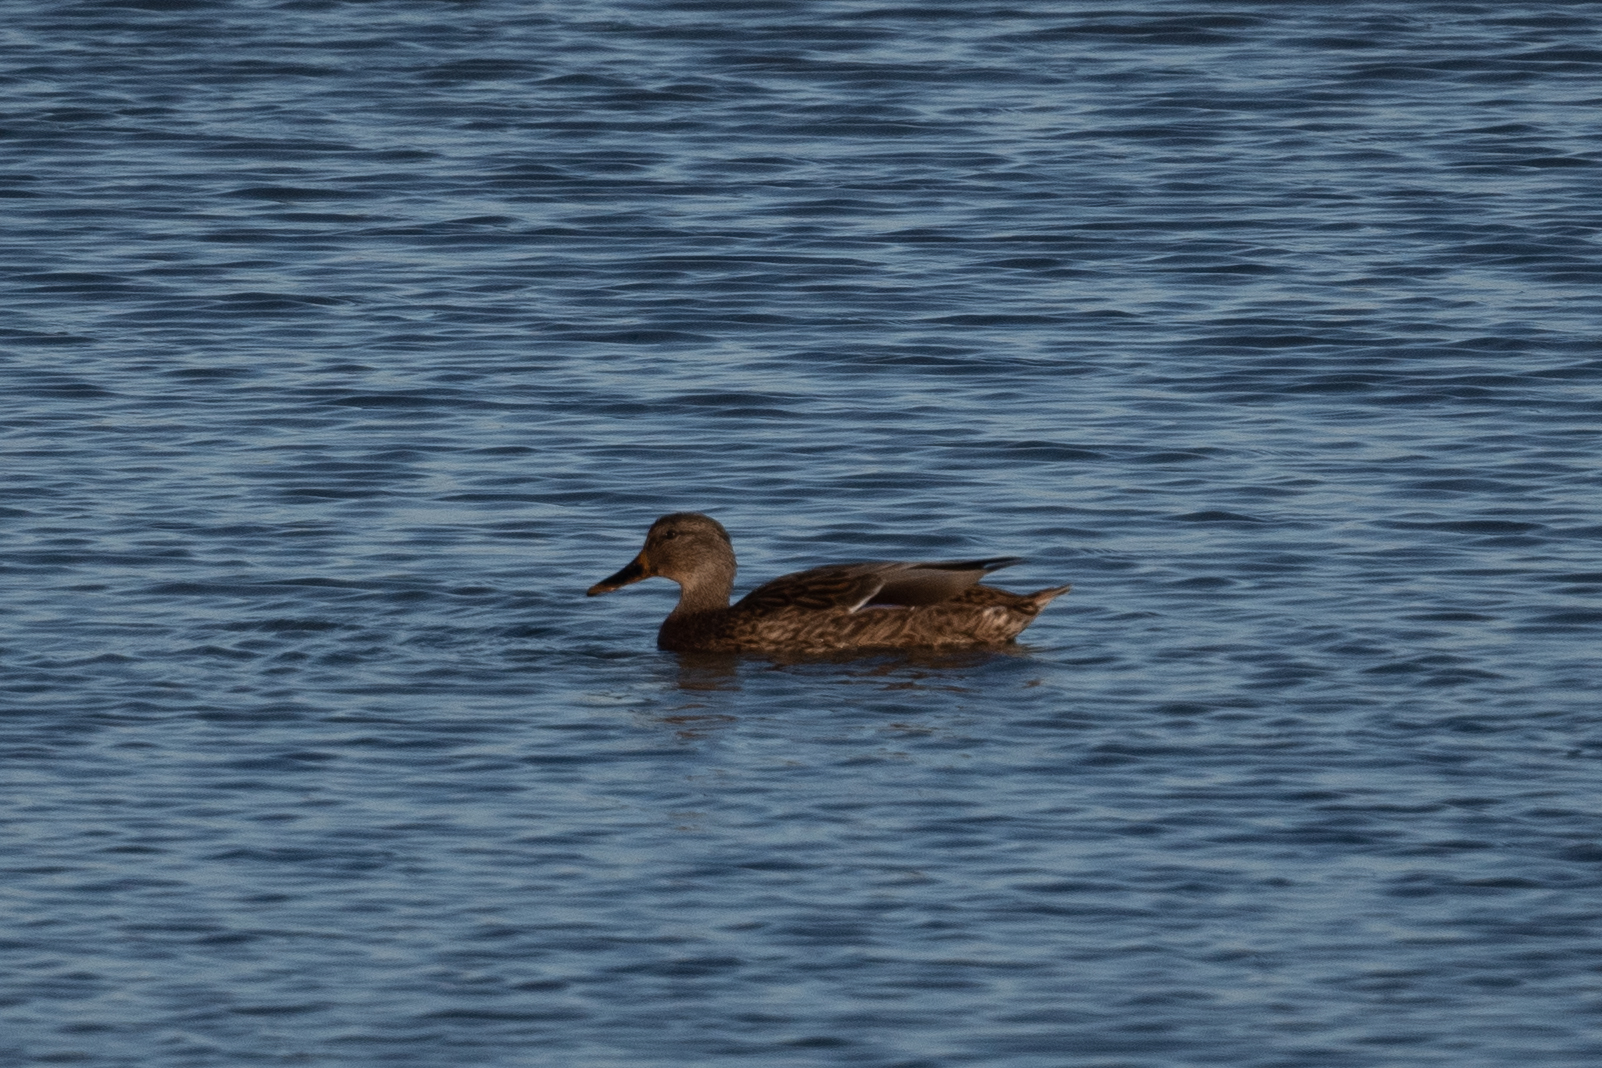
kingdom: Animalia
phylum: Chordata
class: Aves
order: Anseriformes
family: Anatidae
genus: Mareca
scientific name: Mareca strepera
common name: Gadwall
